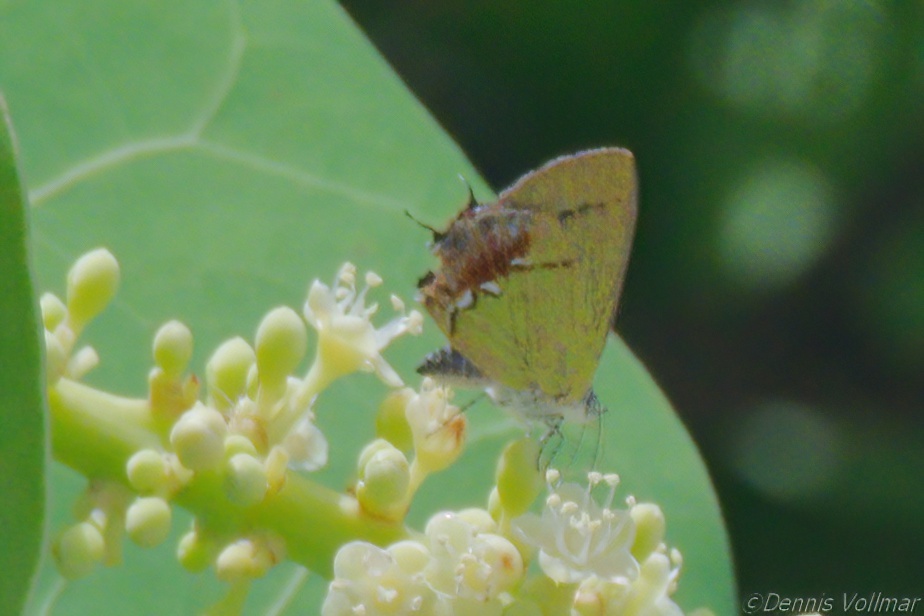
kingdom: Animalia
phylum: Arthropoda
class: Insecta
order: Lepidoptera
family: Lycaenidae
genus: Thecla
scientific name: Thecla maesites
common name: Verde azul hairstreak
